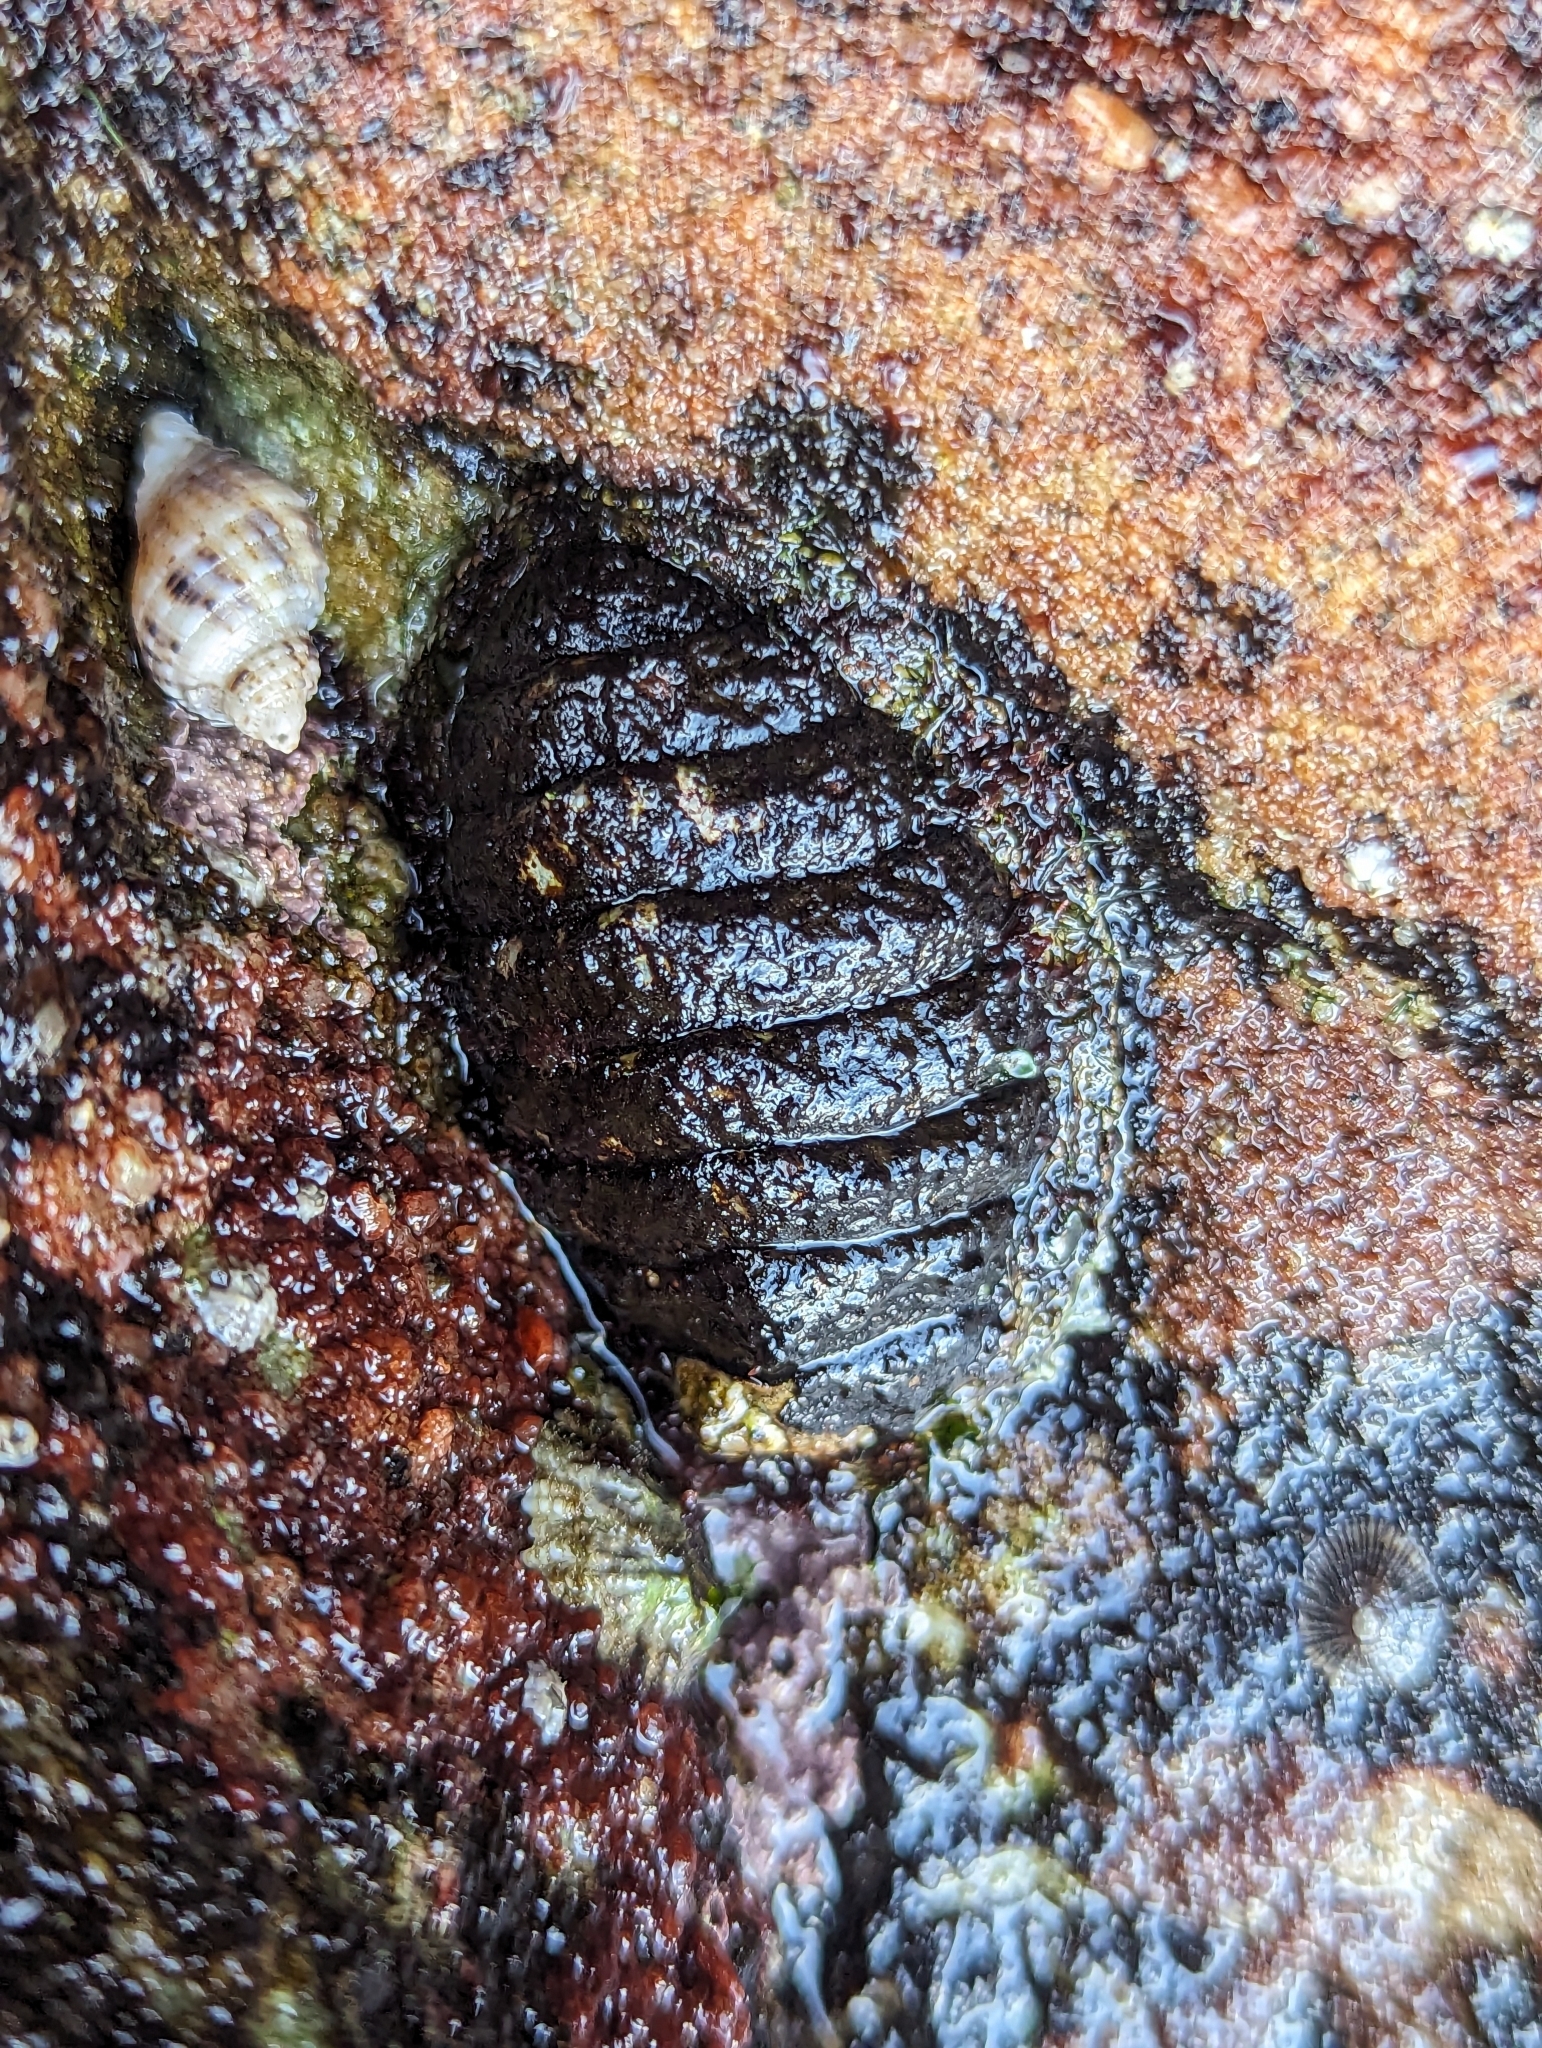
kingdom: Animalia
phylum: Mollusca
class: Polyplacophora
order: Chitonida
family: Mopaliidae
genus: Plaxiphora
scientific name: Plaxiphora albida
